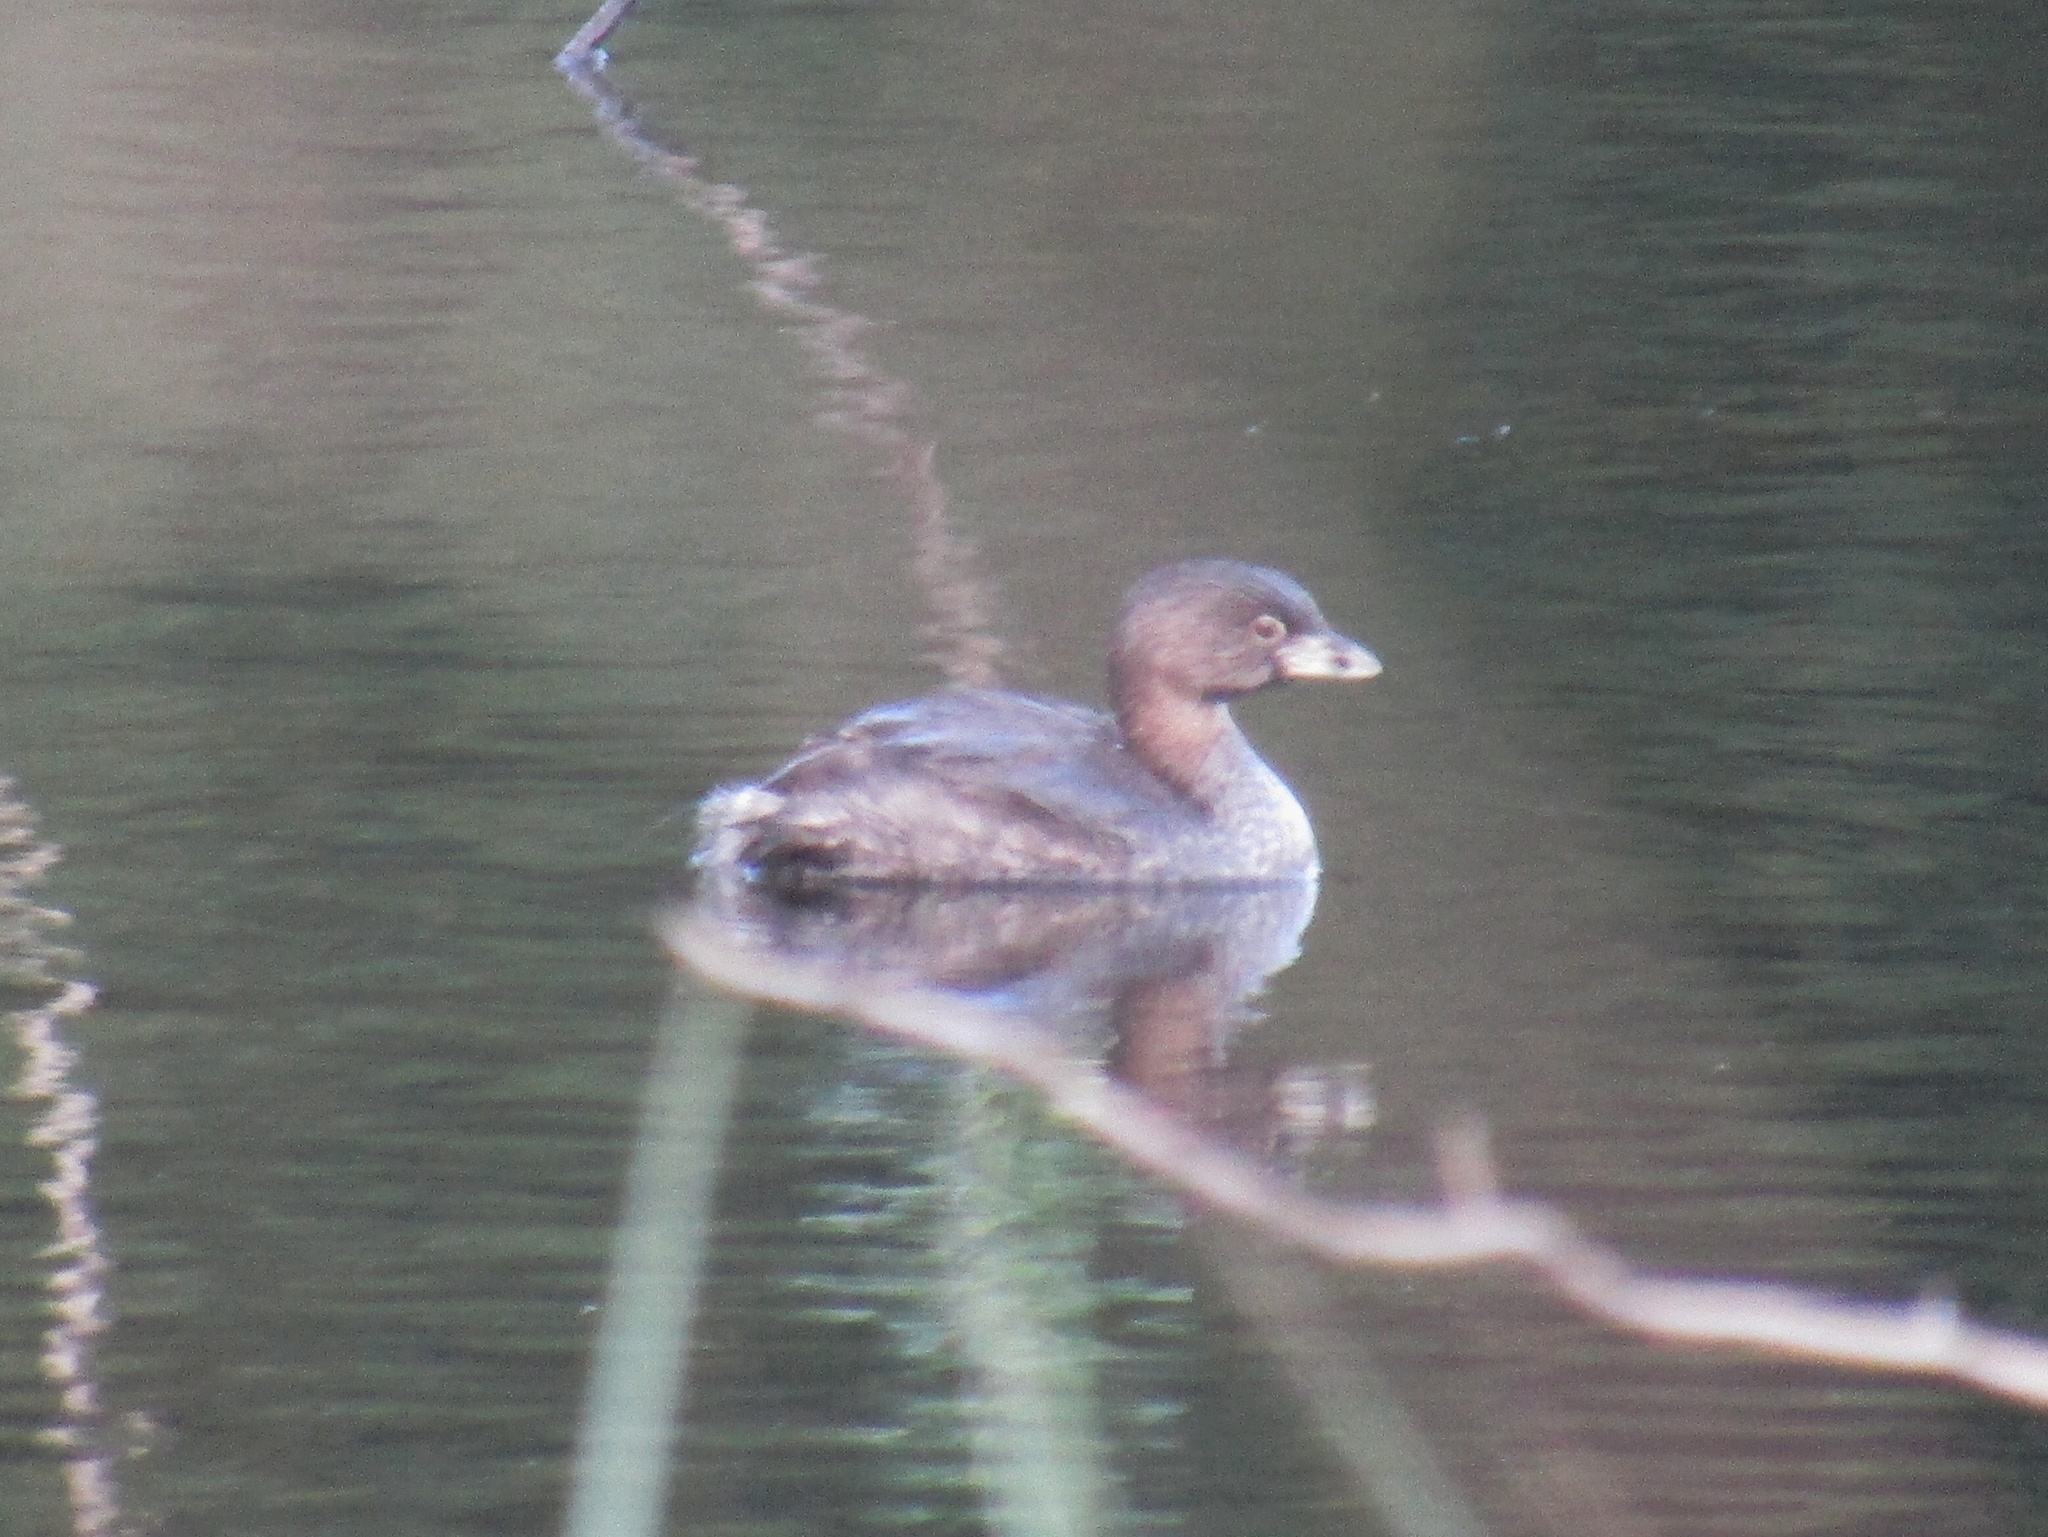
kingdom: Animalia
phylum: Chordata
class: Aves
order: Podicipediformes
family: Podicipedidae
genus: Podilymbus
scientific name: Podilymbus podiceps
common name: Pied-billed grebe
